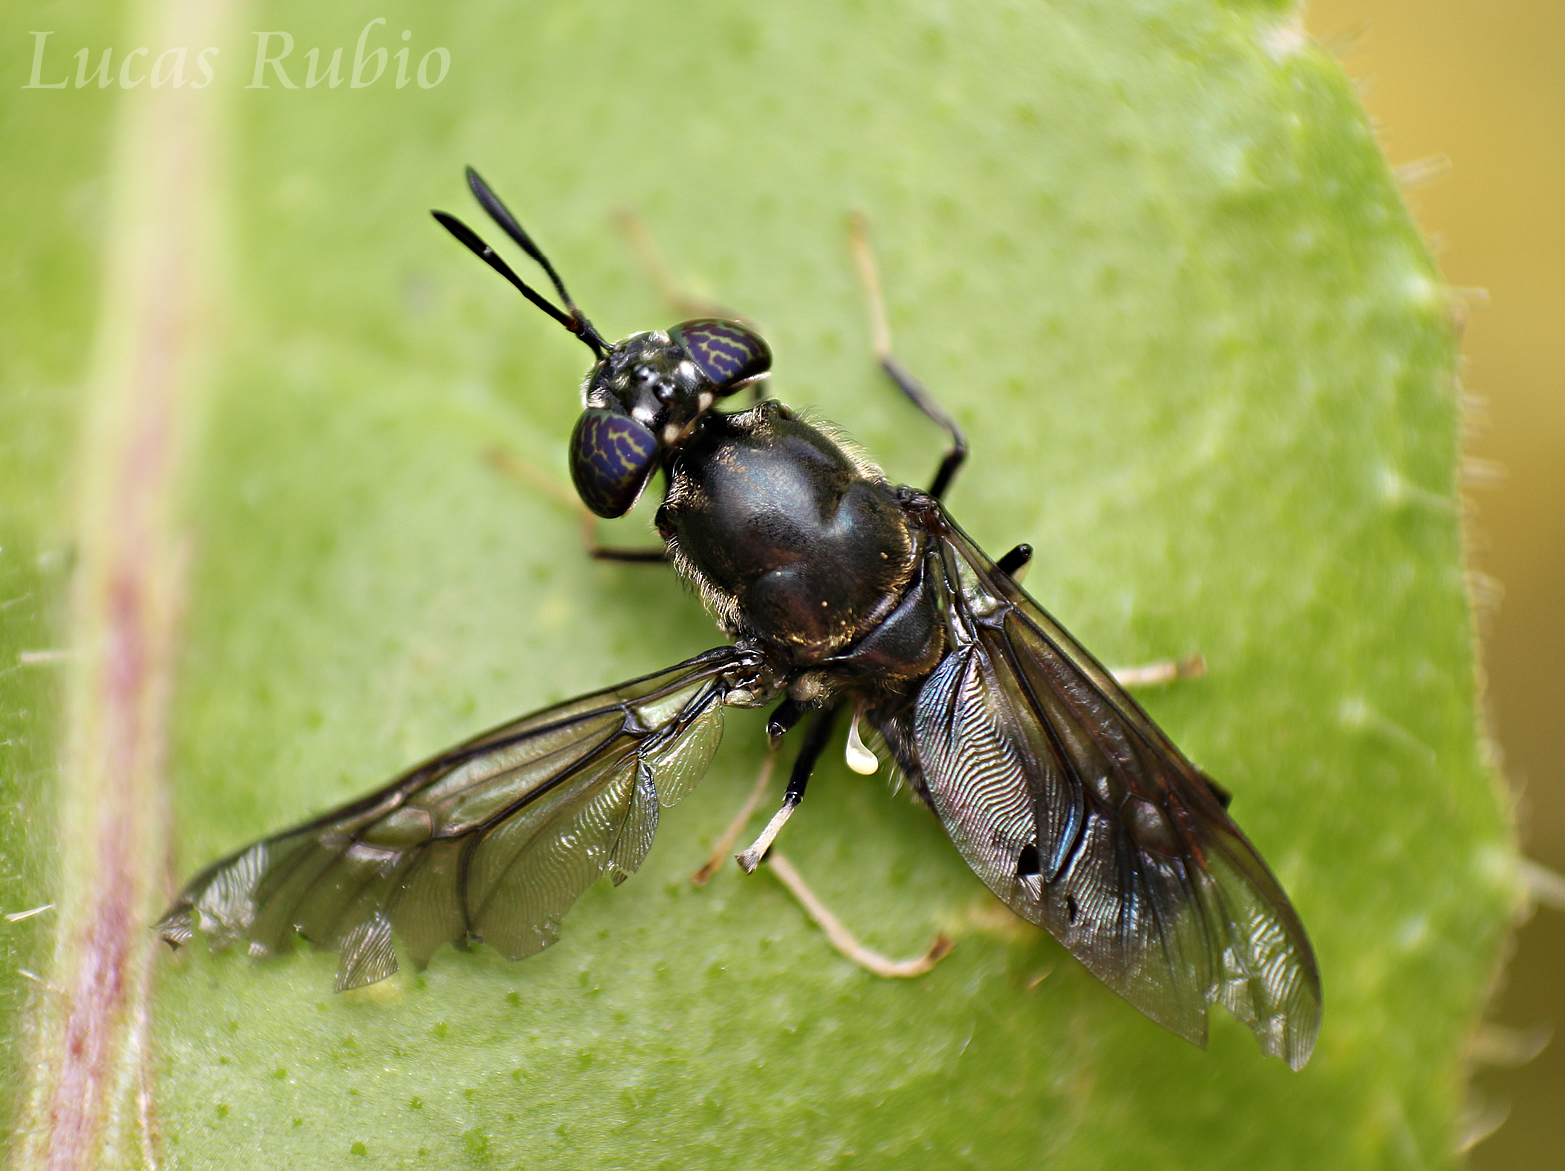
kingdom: Animalia
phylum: Arthropoda
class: Insecta
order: Diptera
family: Stratiomyidae
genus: Hermetia
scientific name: Hermetia illucens
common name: Black soldier fly
